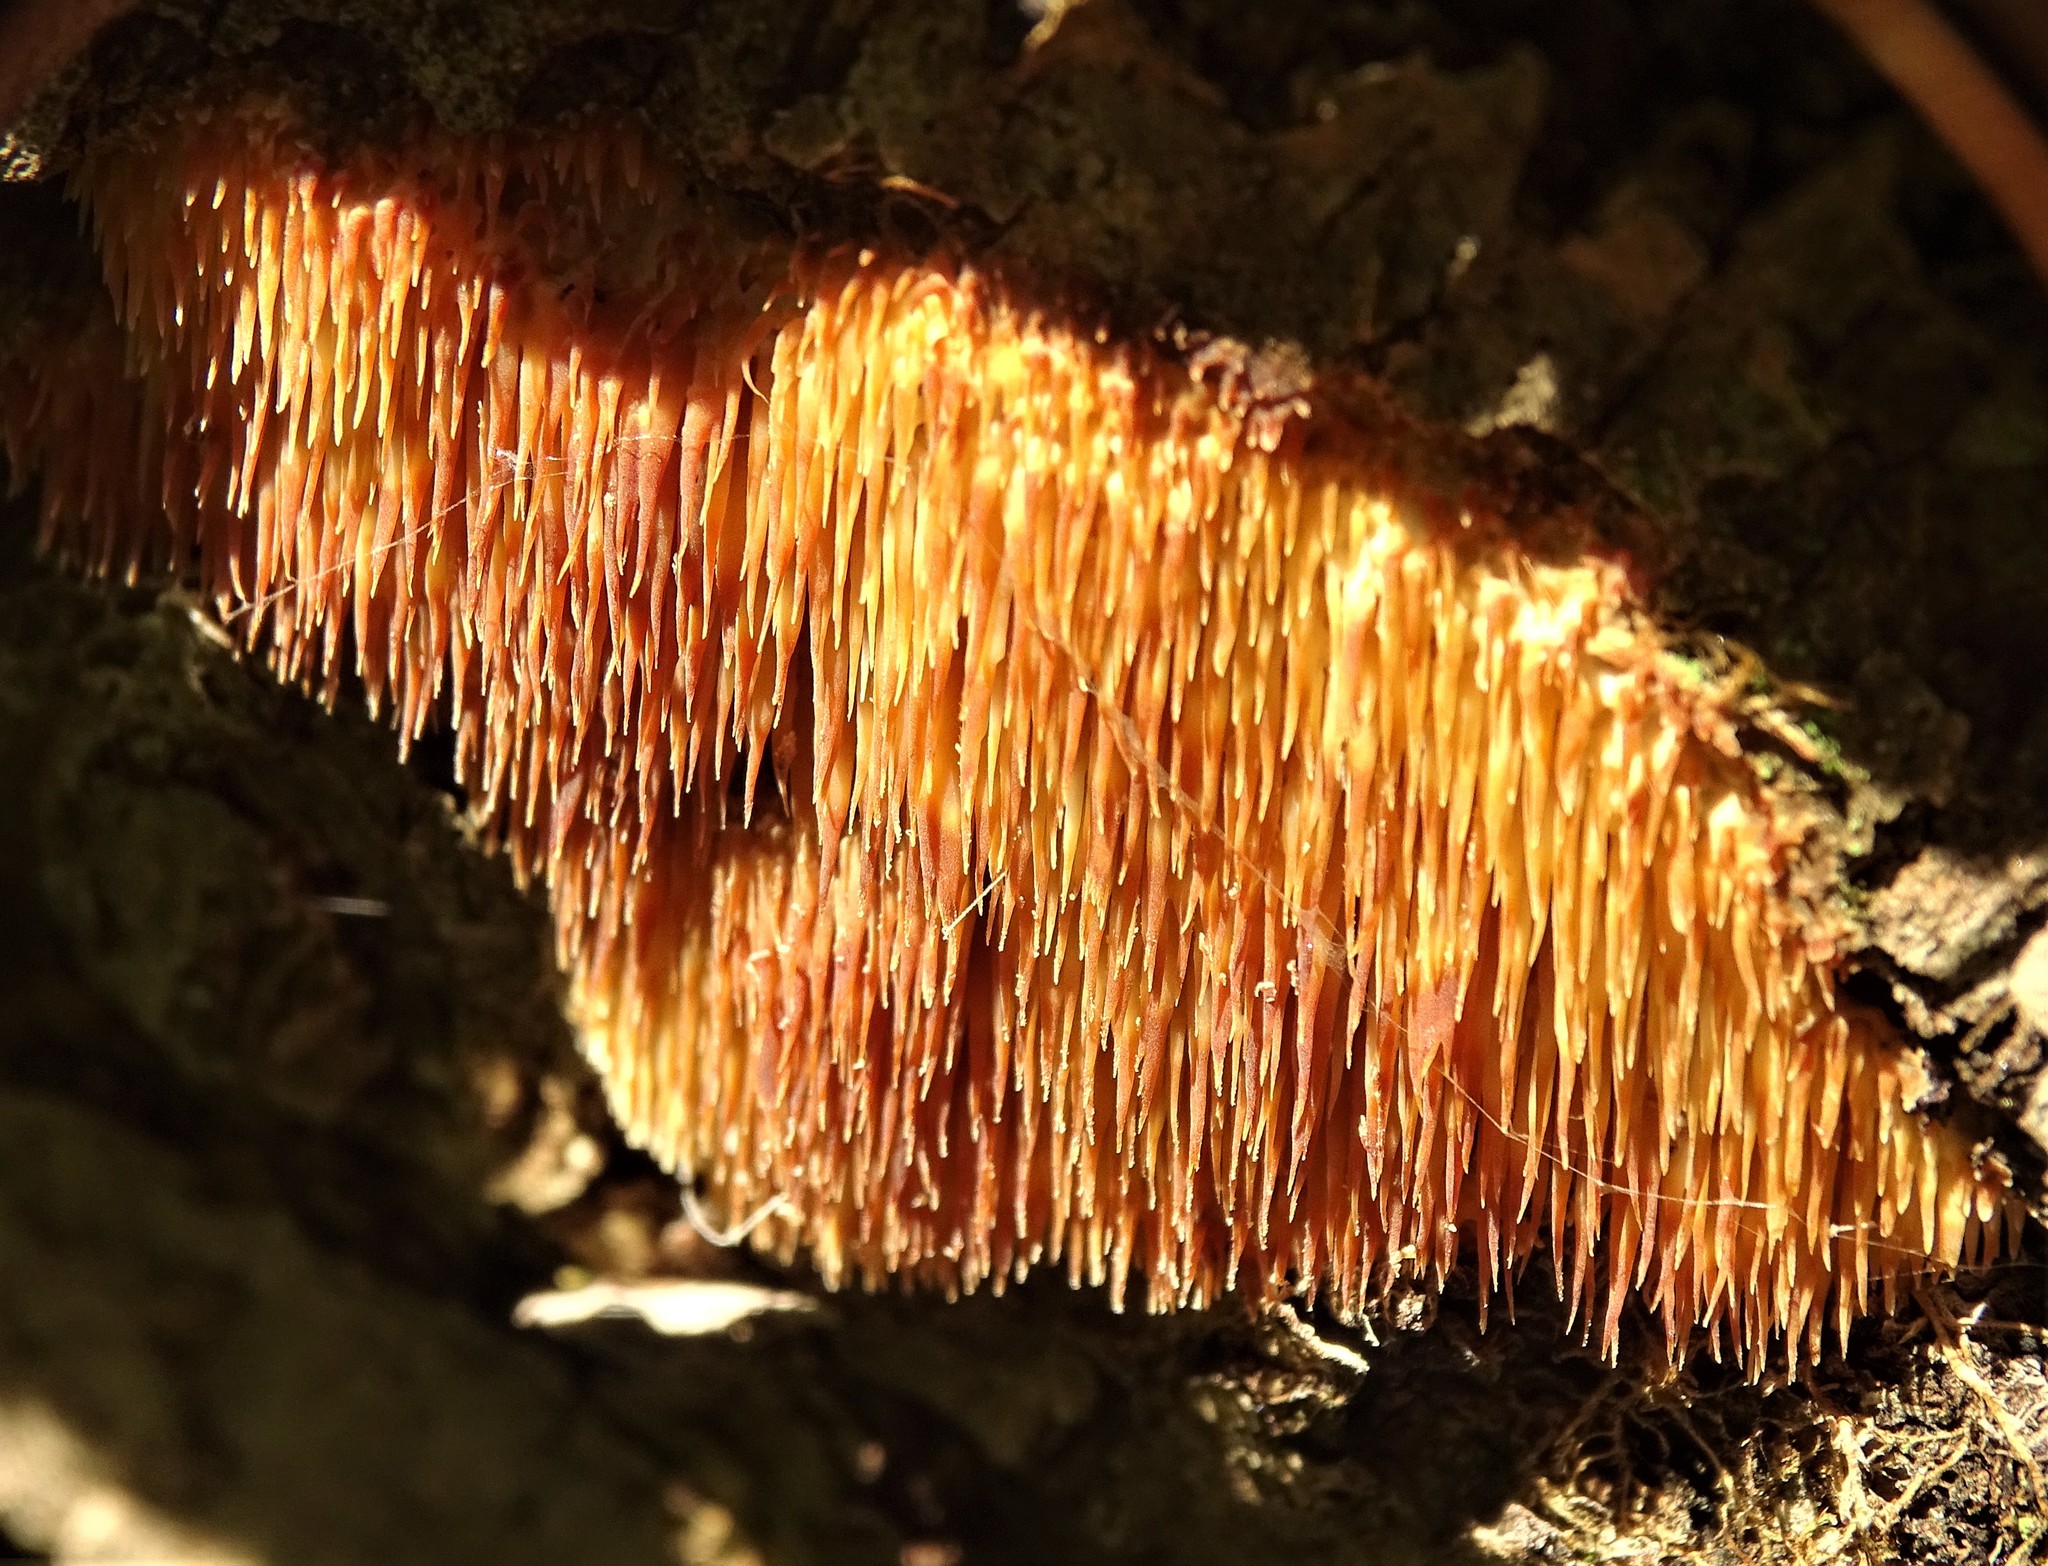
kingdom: Fungi
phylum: Basidiomycota
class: Agaricomycetes
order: Agaricales
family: Radulomycetaceae
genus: Radulomyces
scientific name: Radulomyces copelandii
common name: Asian beauty
